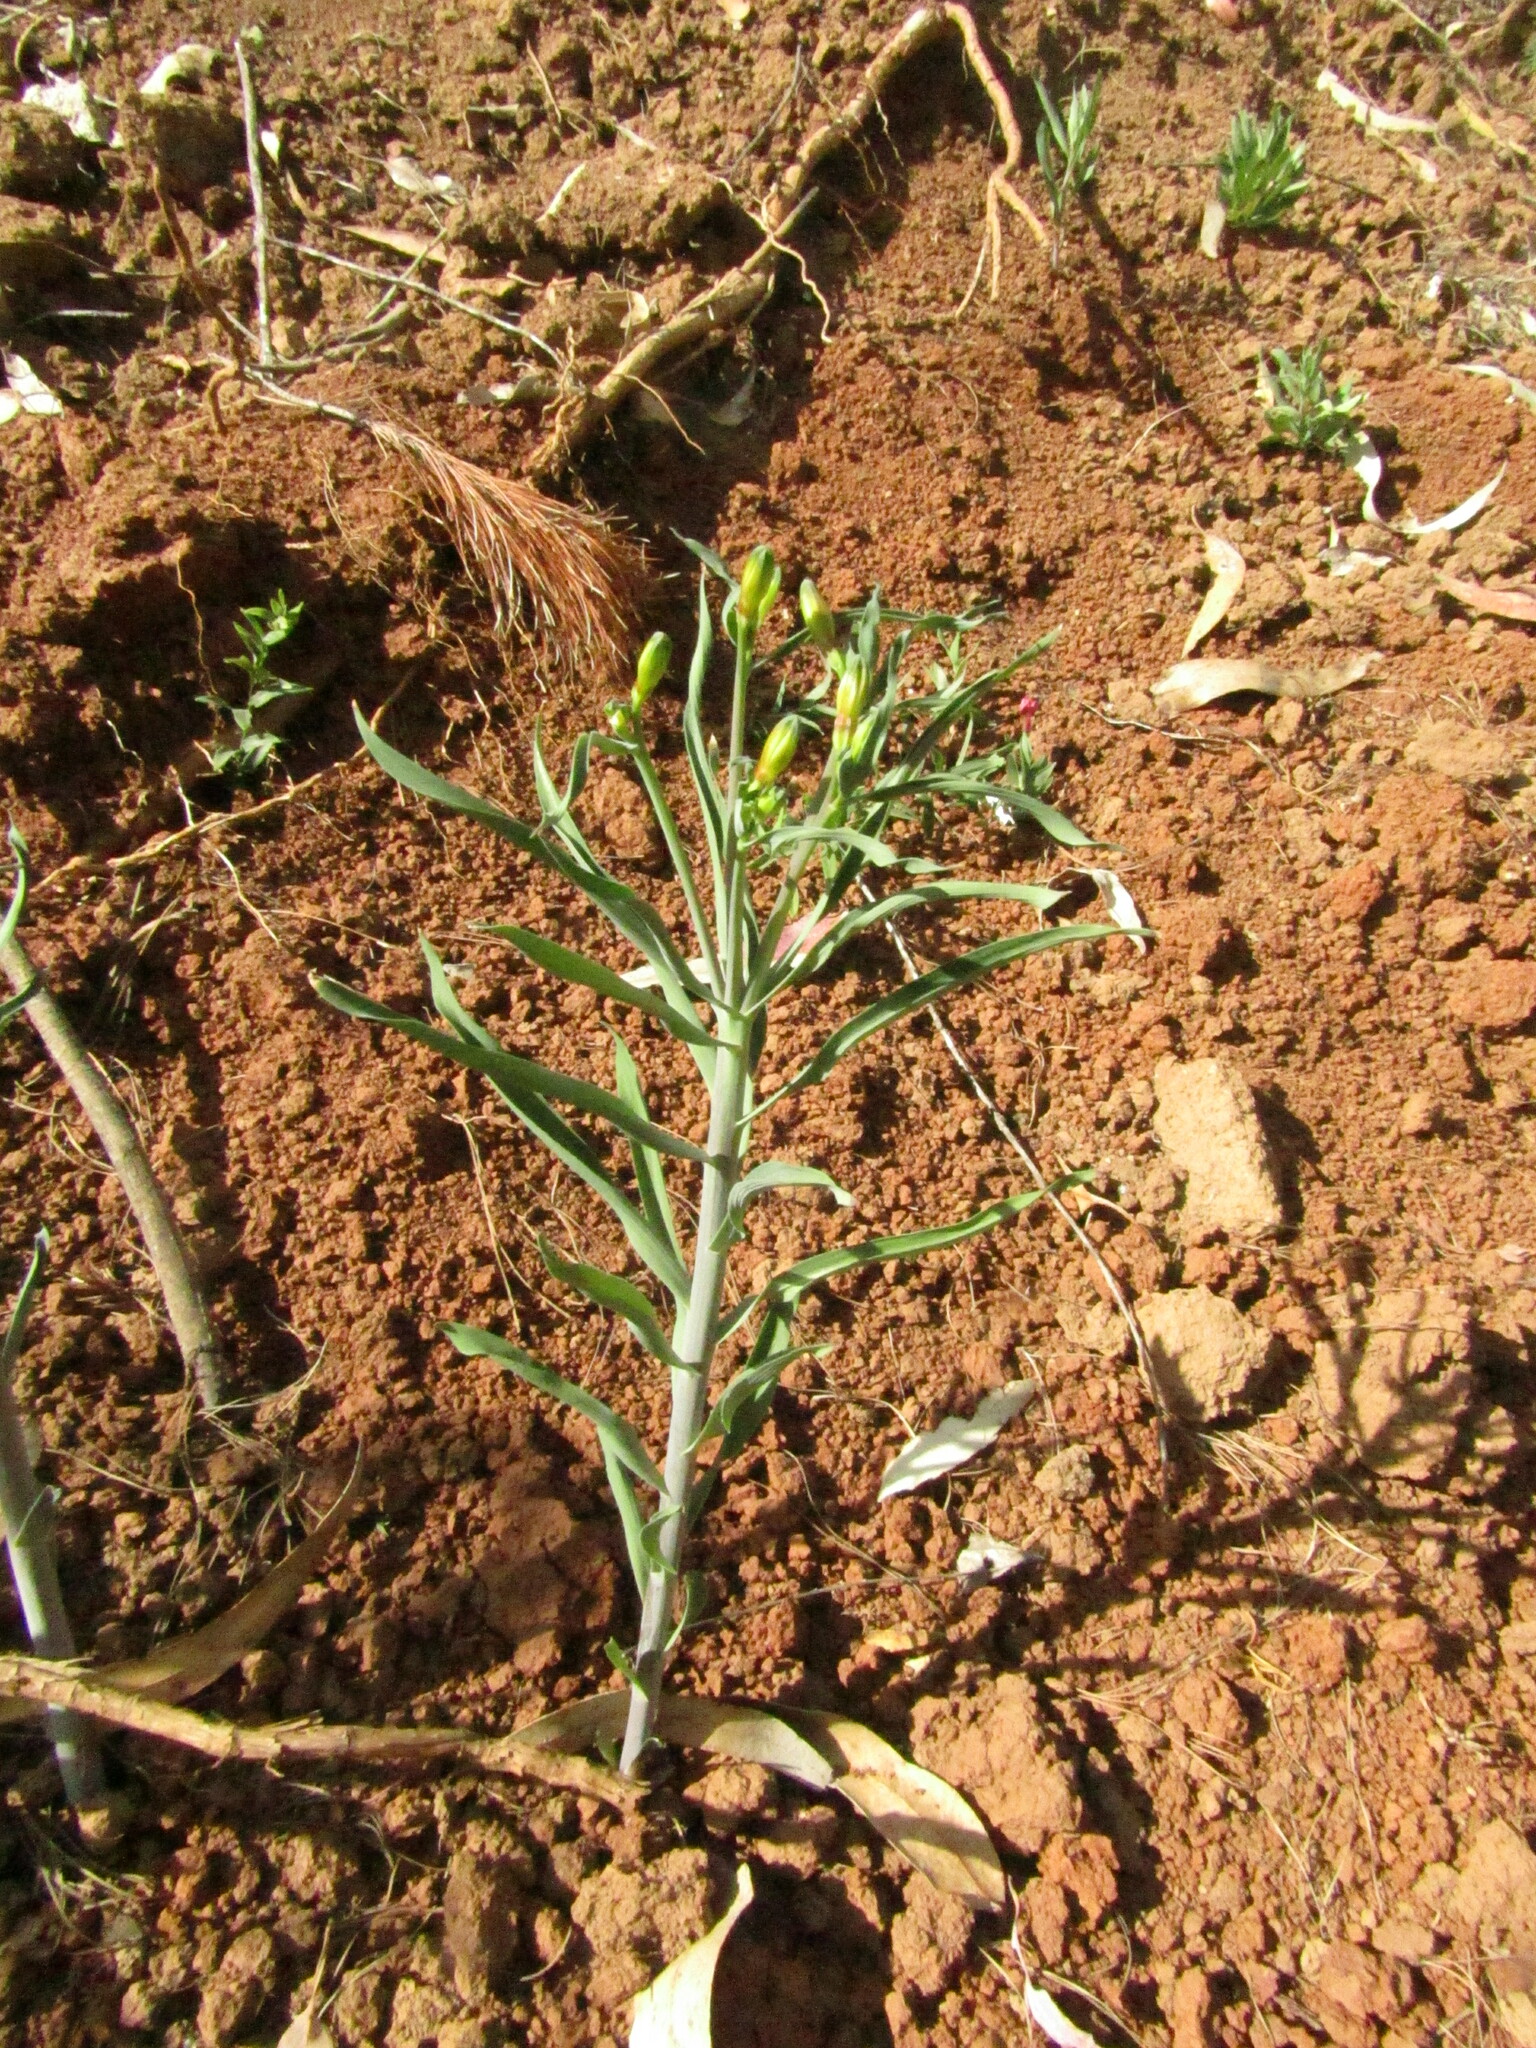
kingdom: Plantae
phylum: Tracheophyta
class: Liliopsida
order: Liliales
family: Alstroemeriaceae
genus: Alstroemeria
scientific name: Alstroemeria ligtu
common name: St. martin's-flower
